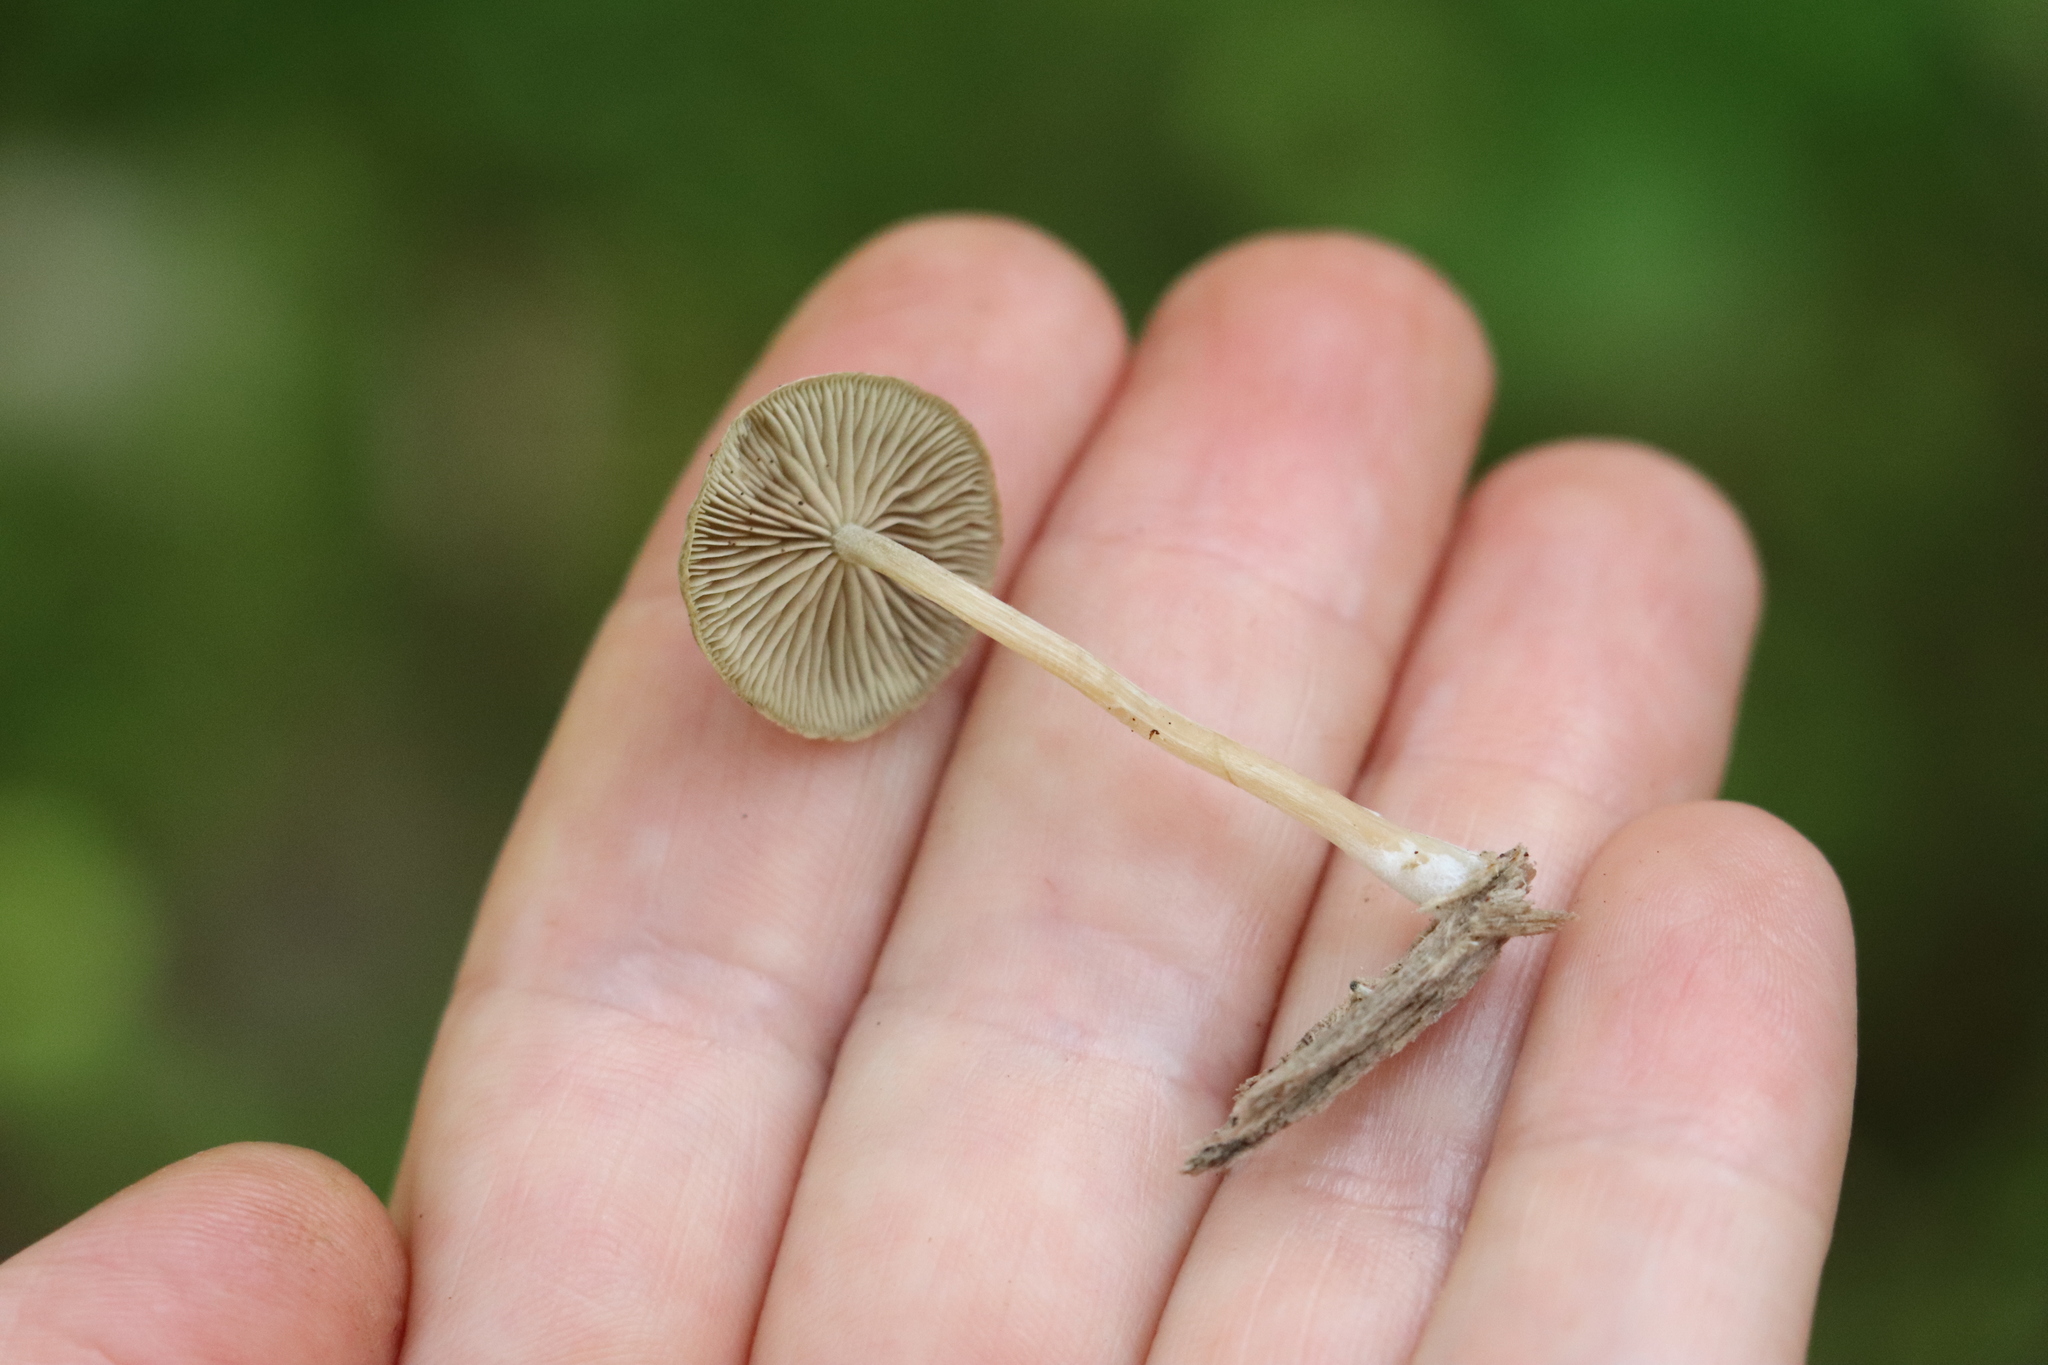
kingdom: Fungi
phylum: Basidiomycota
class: Agaricomycetes
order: Agaricales
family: Crepidotaceae
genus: Simocybe
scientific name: Simocybe centunculus
